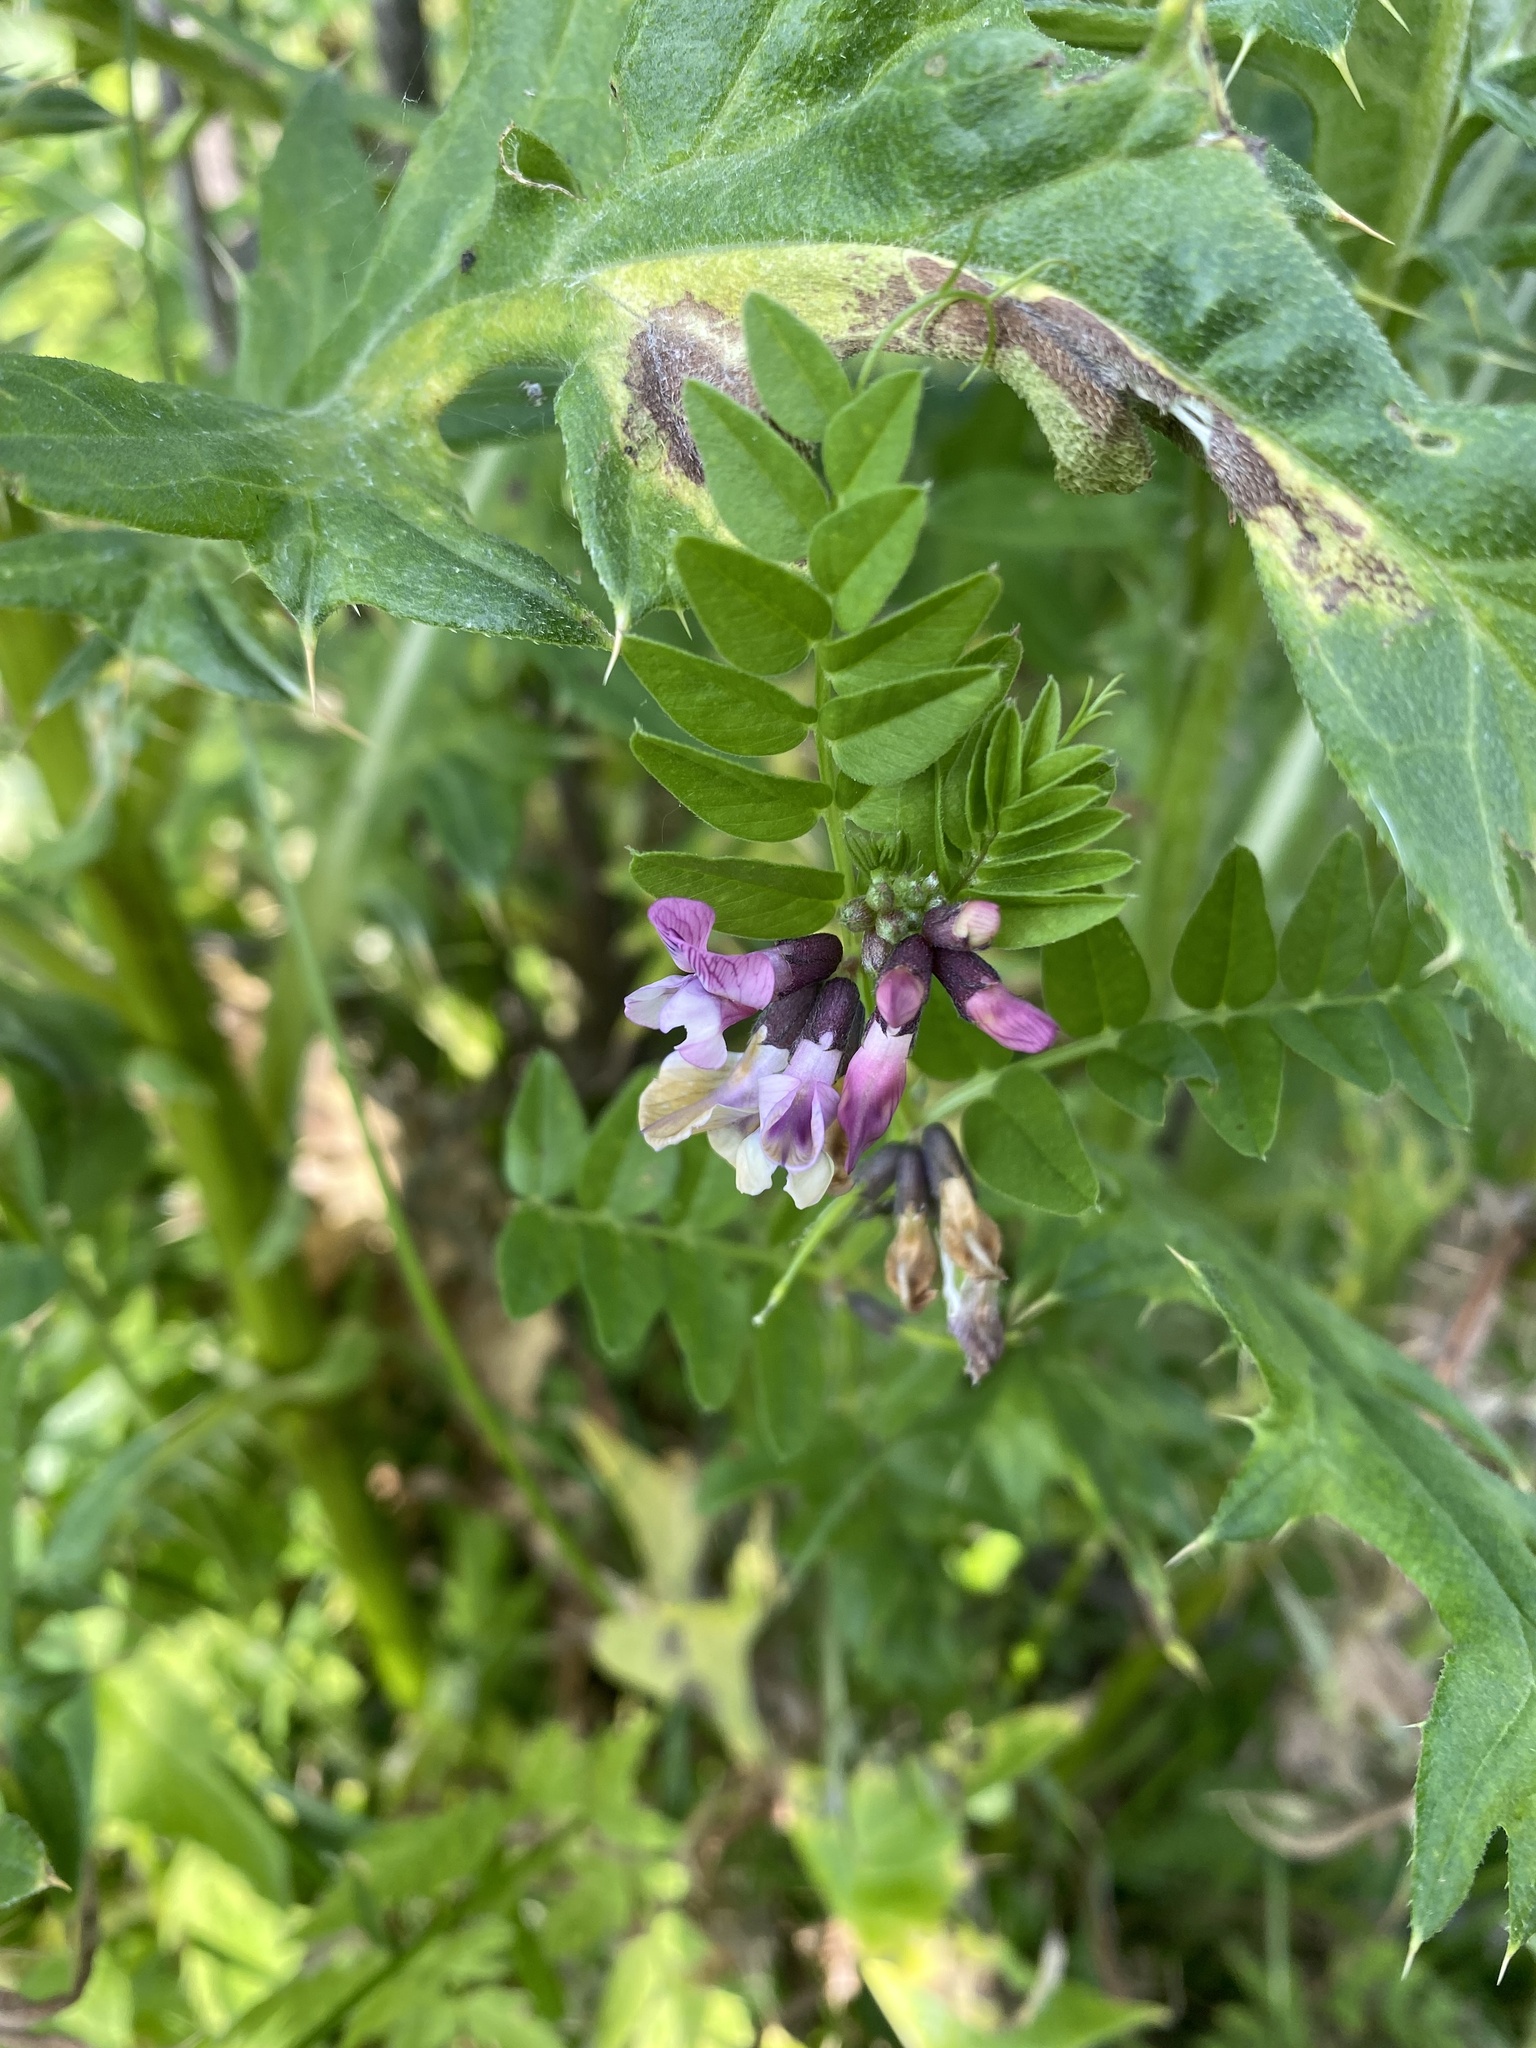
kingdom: Plantae
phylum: Tracheophyta
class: Magnoliopsida
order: Fabales
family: Fabaceae
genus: Vicia
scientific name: Vicia sepium
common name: Bush vetch
